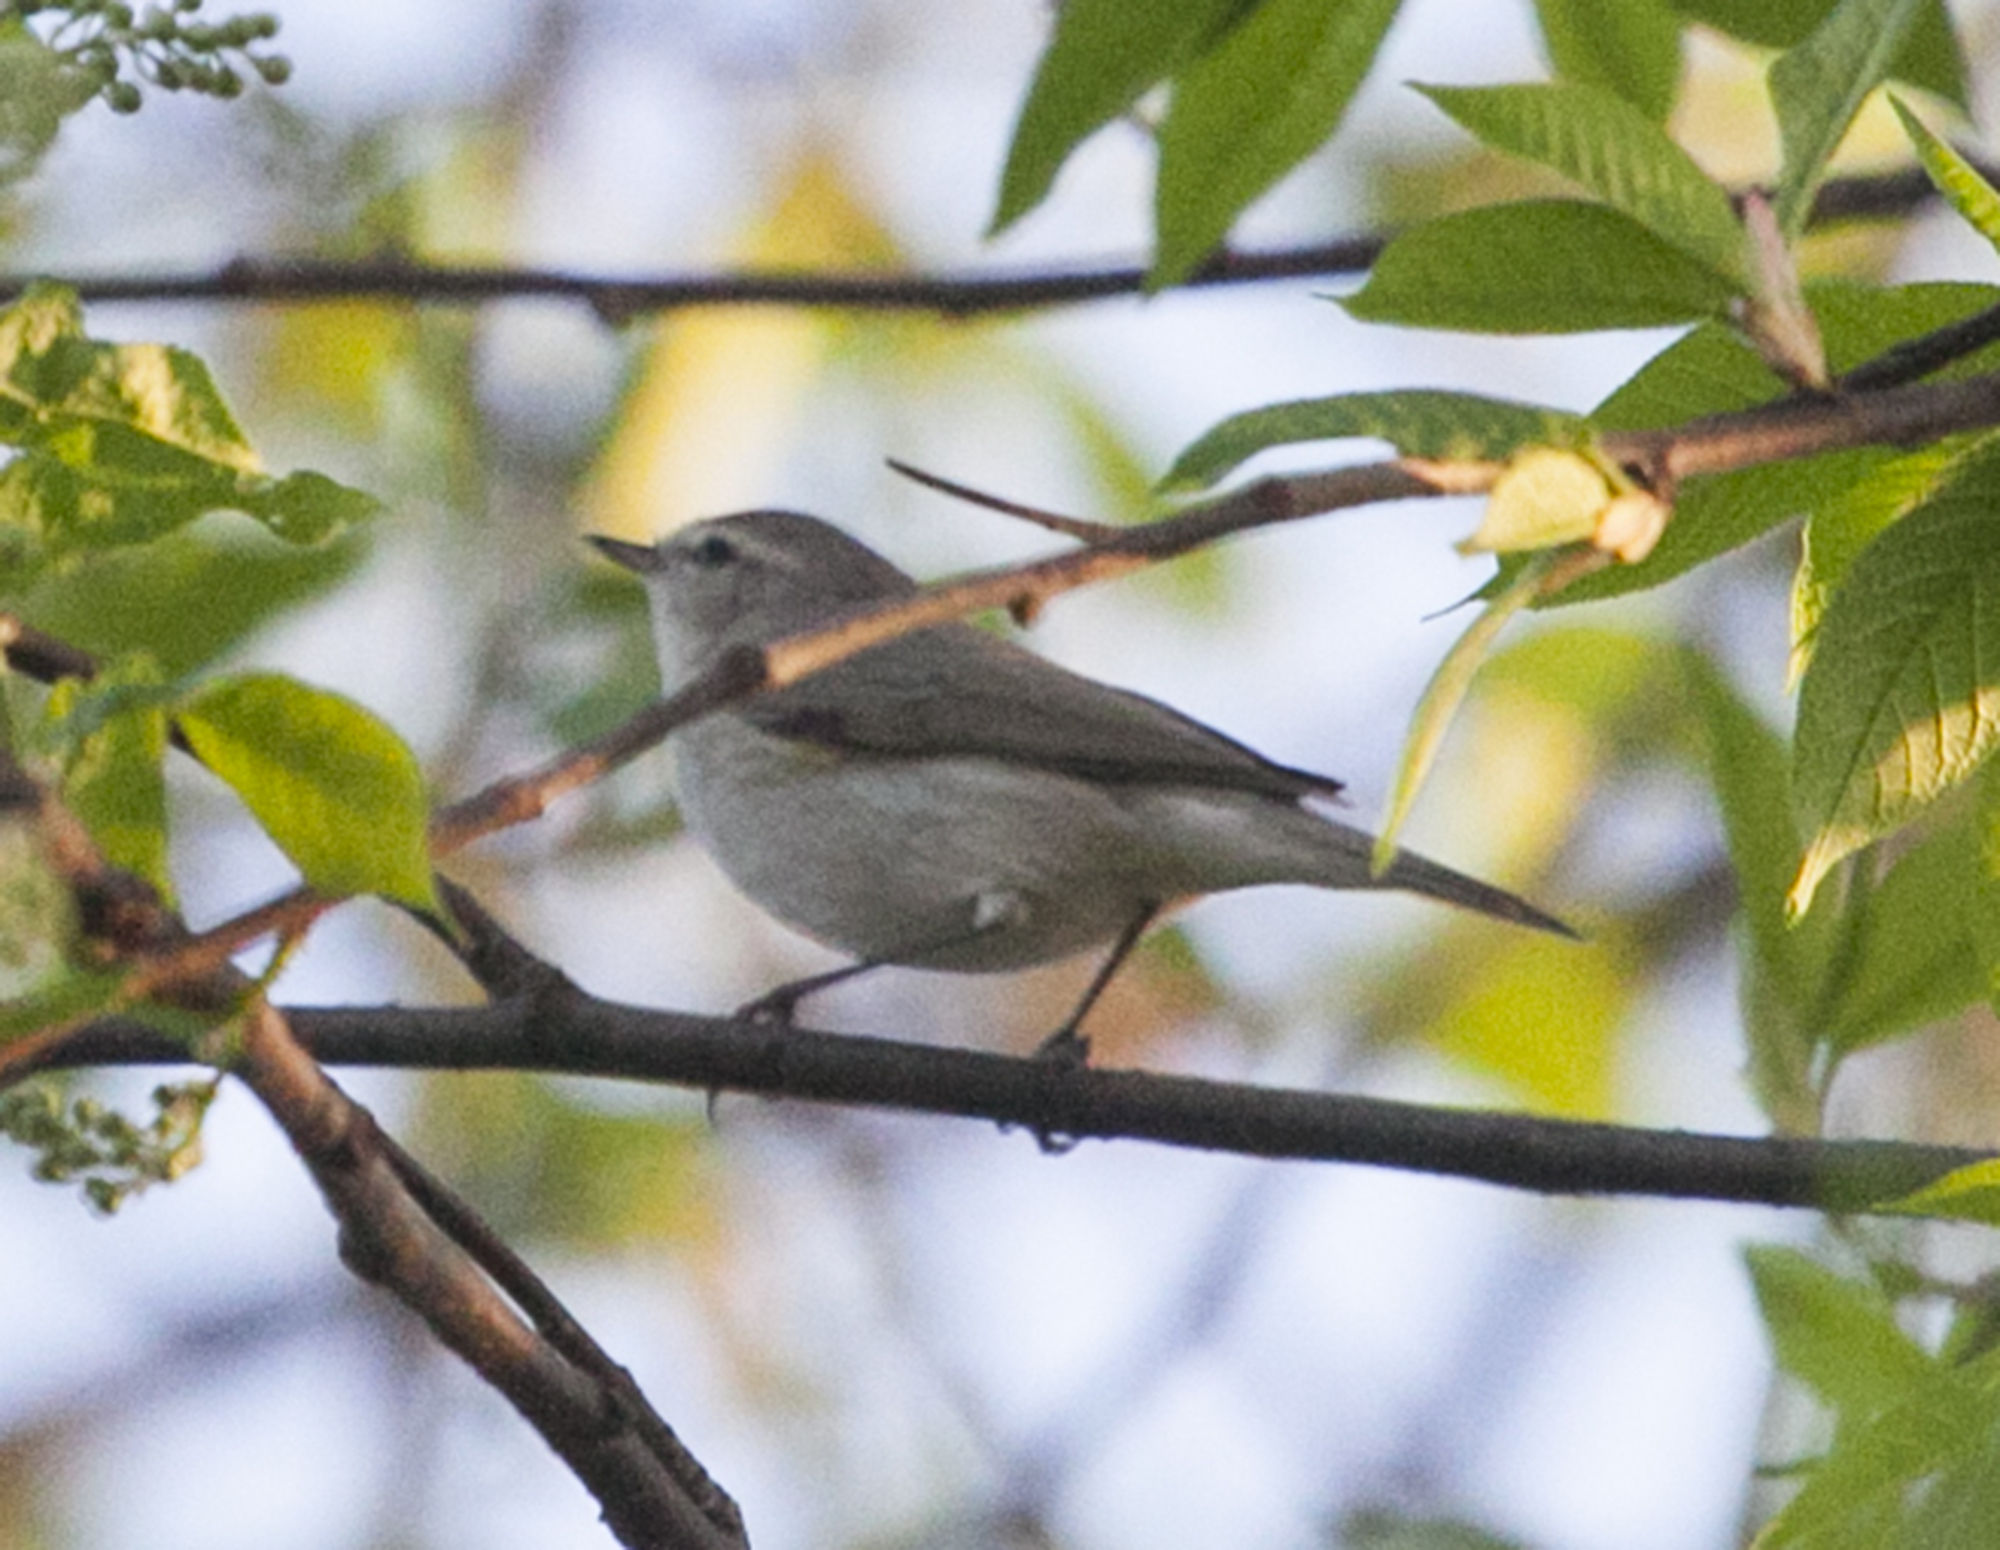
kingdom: Animalia
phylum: Chordata
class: Aves
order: Passeriformes
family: Phylloscopidae
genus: Phylloscopus
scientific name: Phylloscopus collybita
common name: Common chiffchaff
